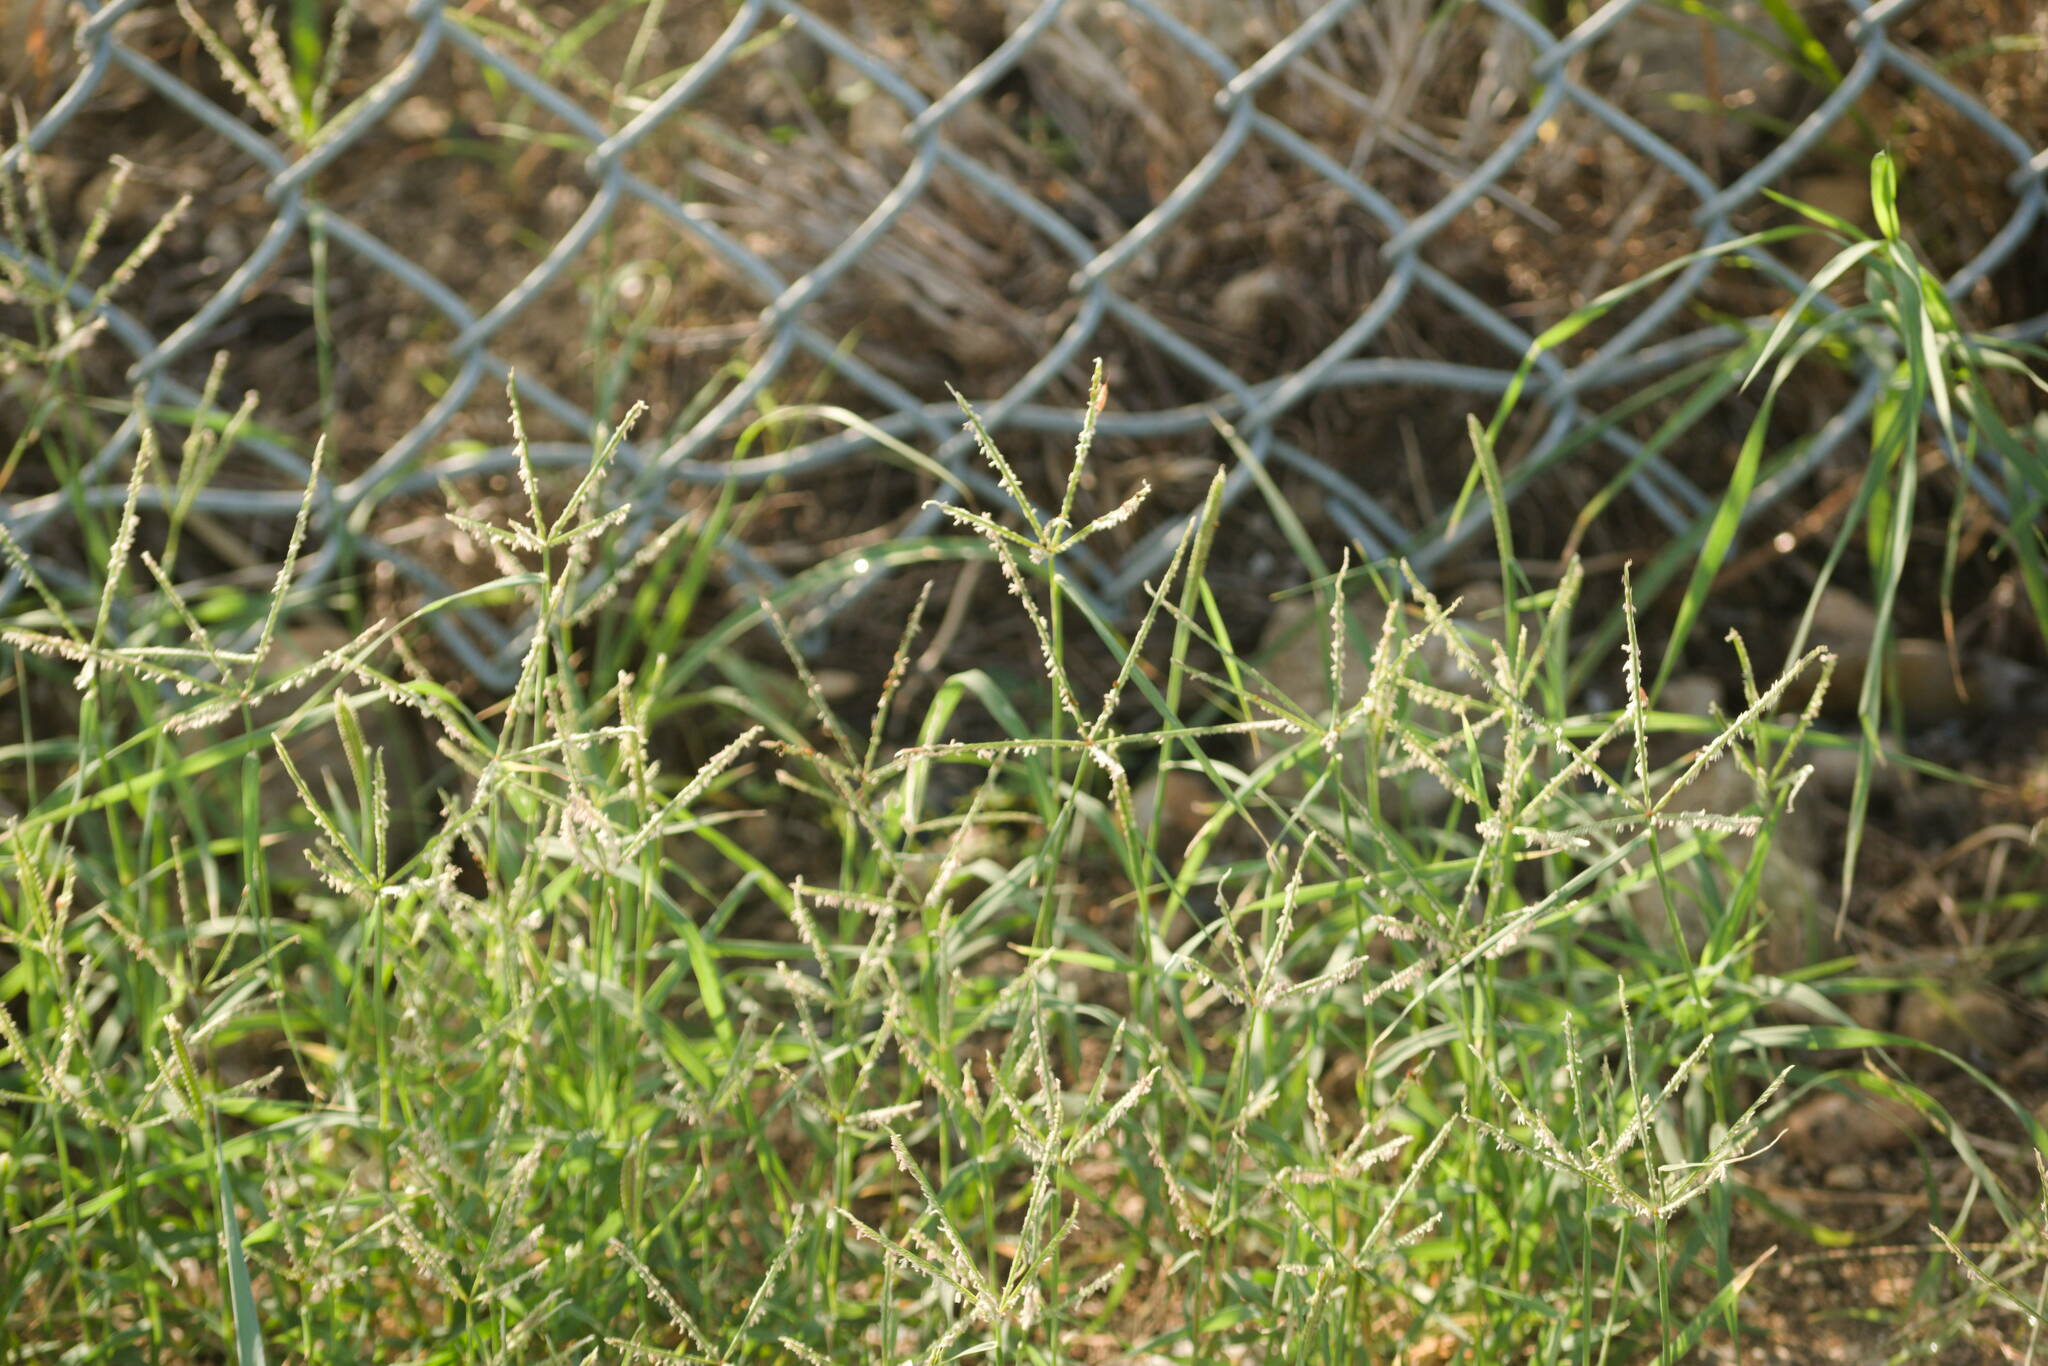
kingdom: Plantae
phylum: Tracheophyta
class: Liliopsida
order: Poales
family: Poaceae
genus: Cynodon
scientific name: Cynodon dactylon
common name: Bermuda grass
